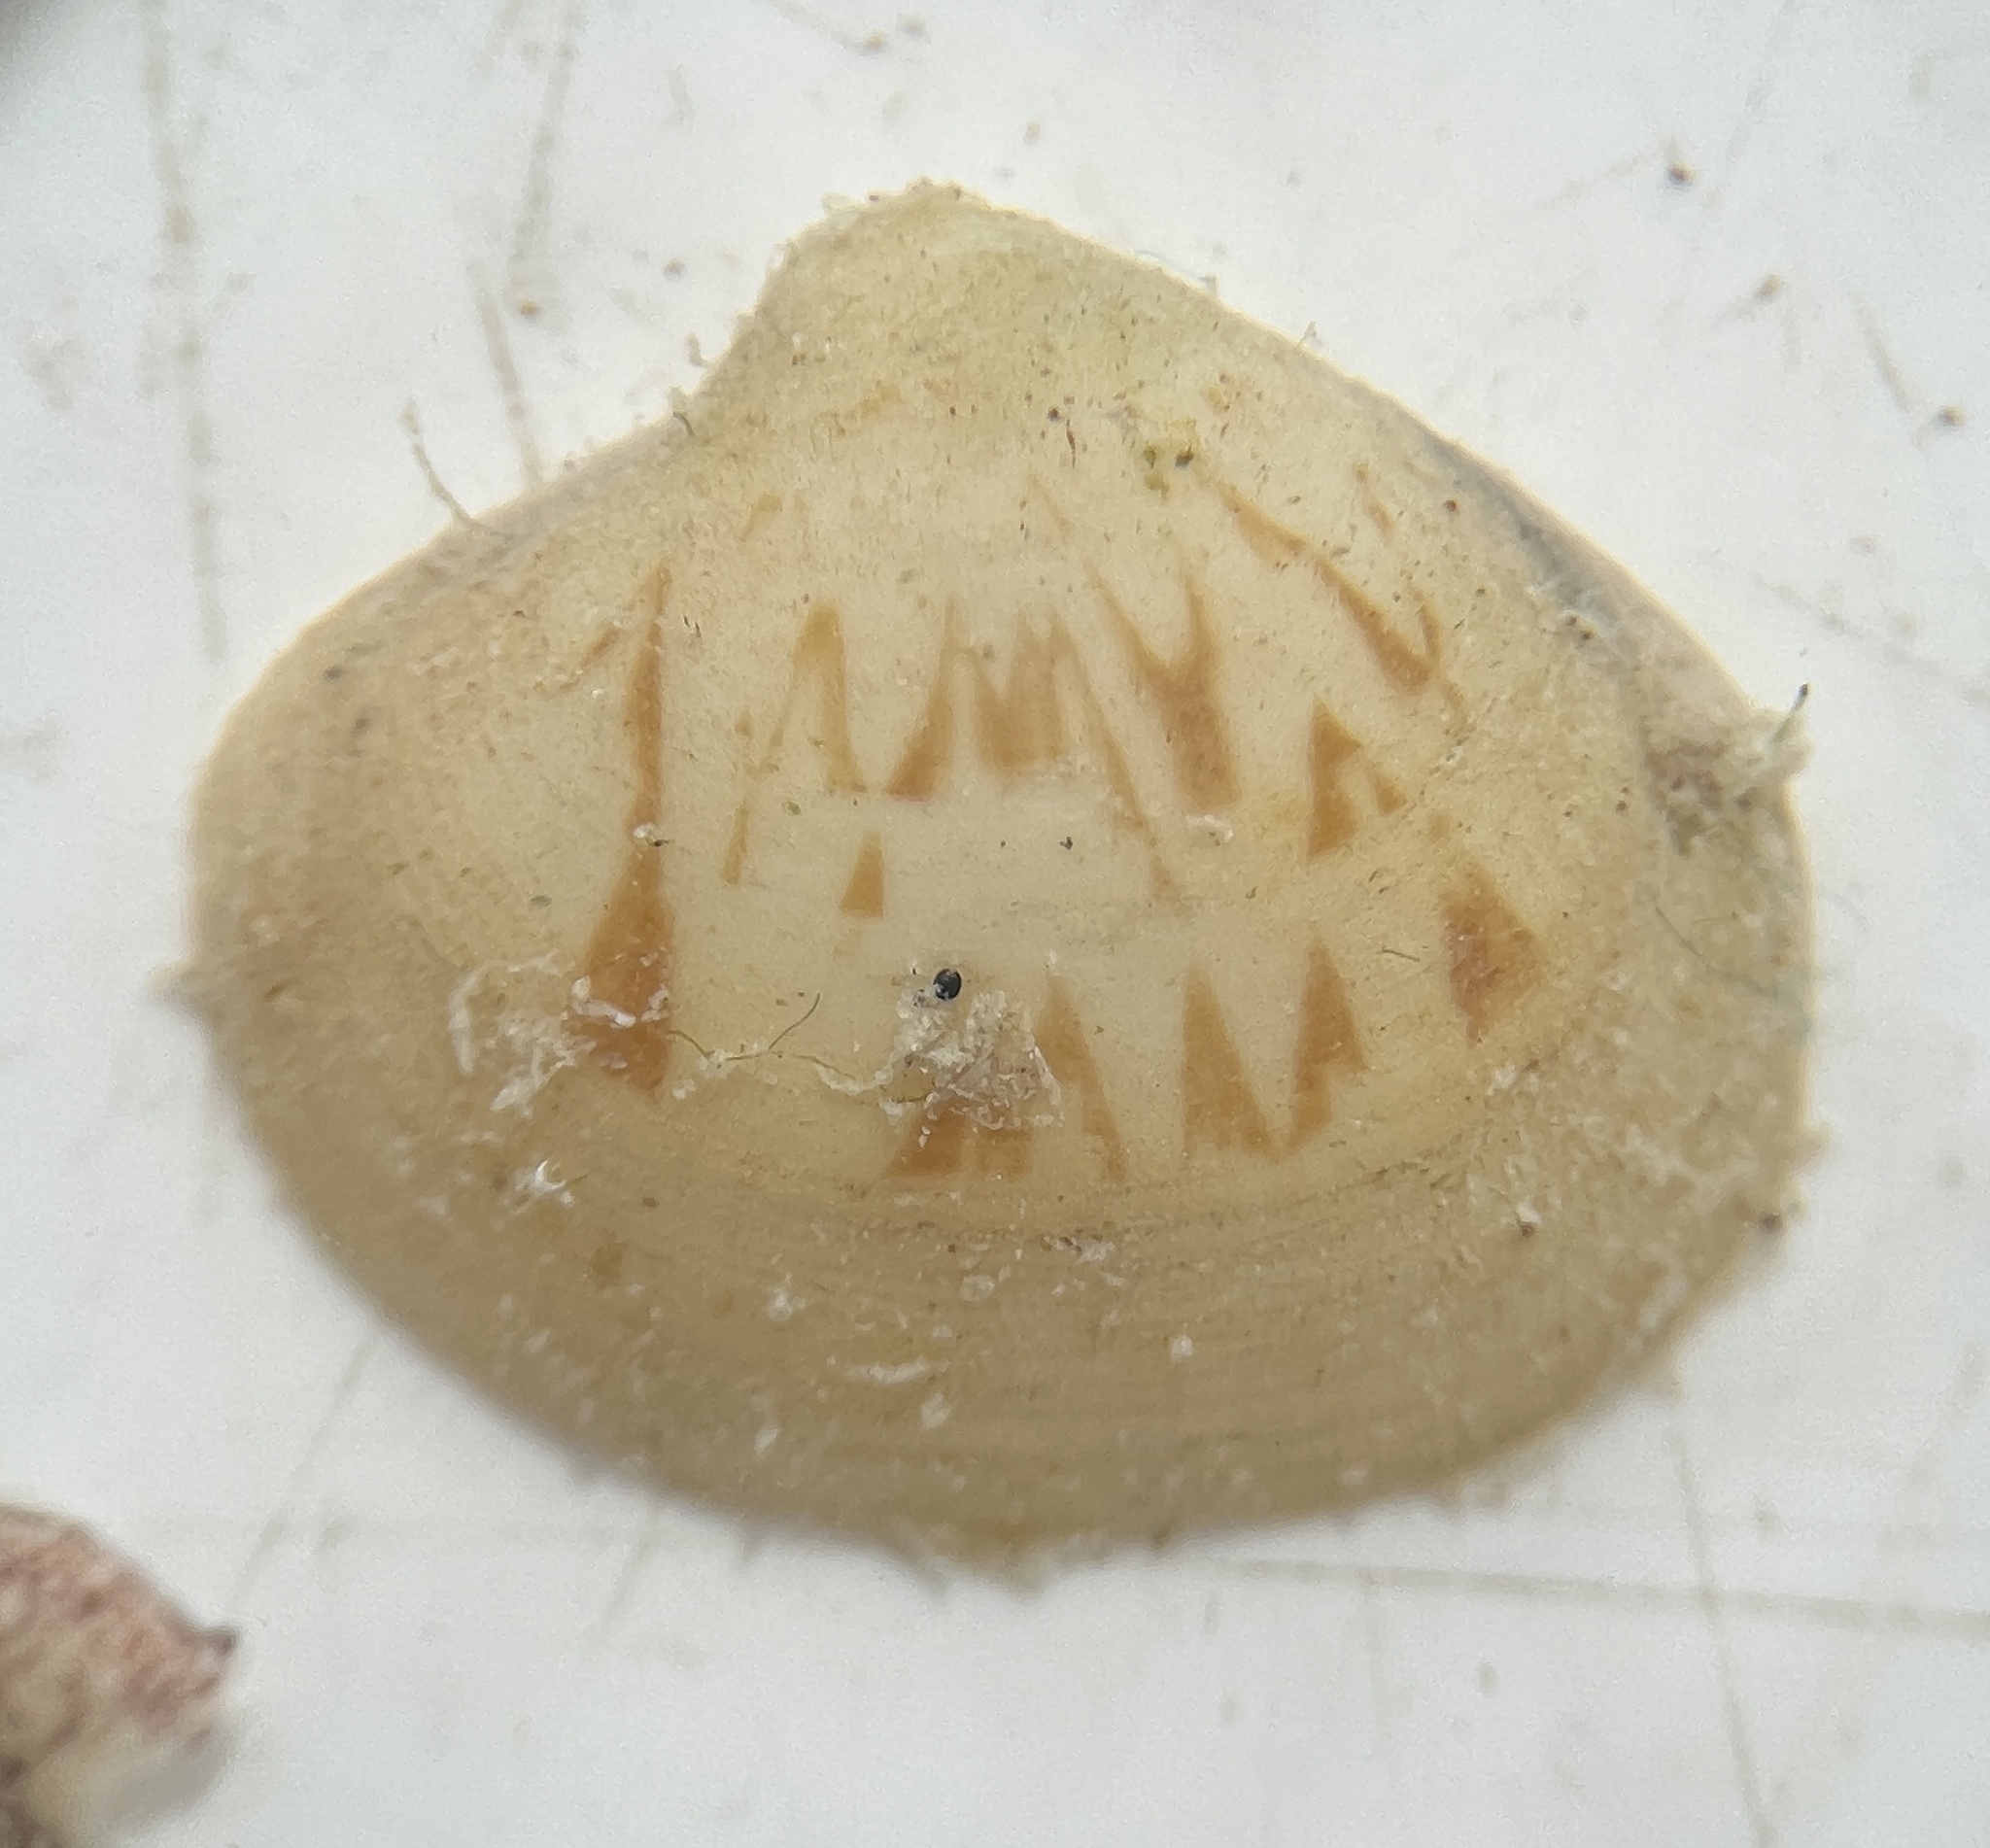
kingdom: Animalia
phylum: Mollusca
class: Bivalvia
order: Venerida
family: Veneridae
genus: Pitar
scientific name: Pitar fulminatus
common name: Lightning pitar
